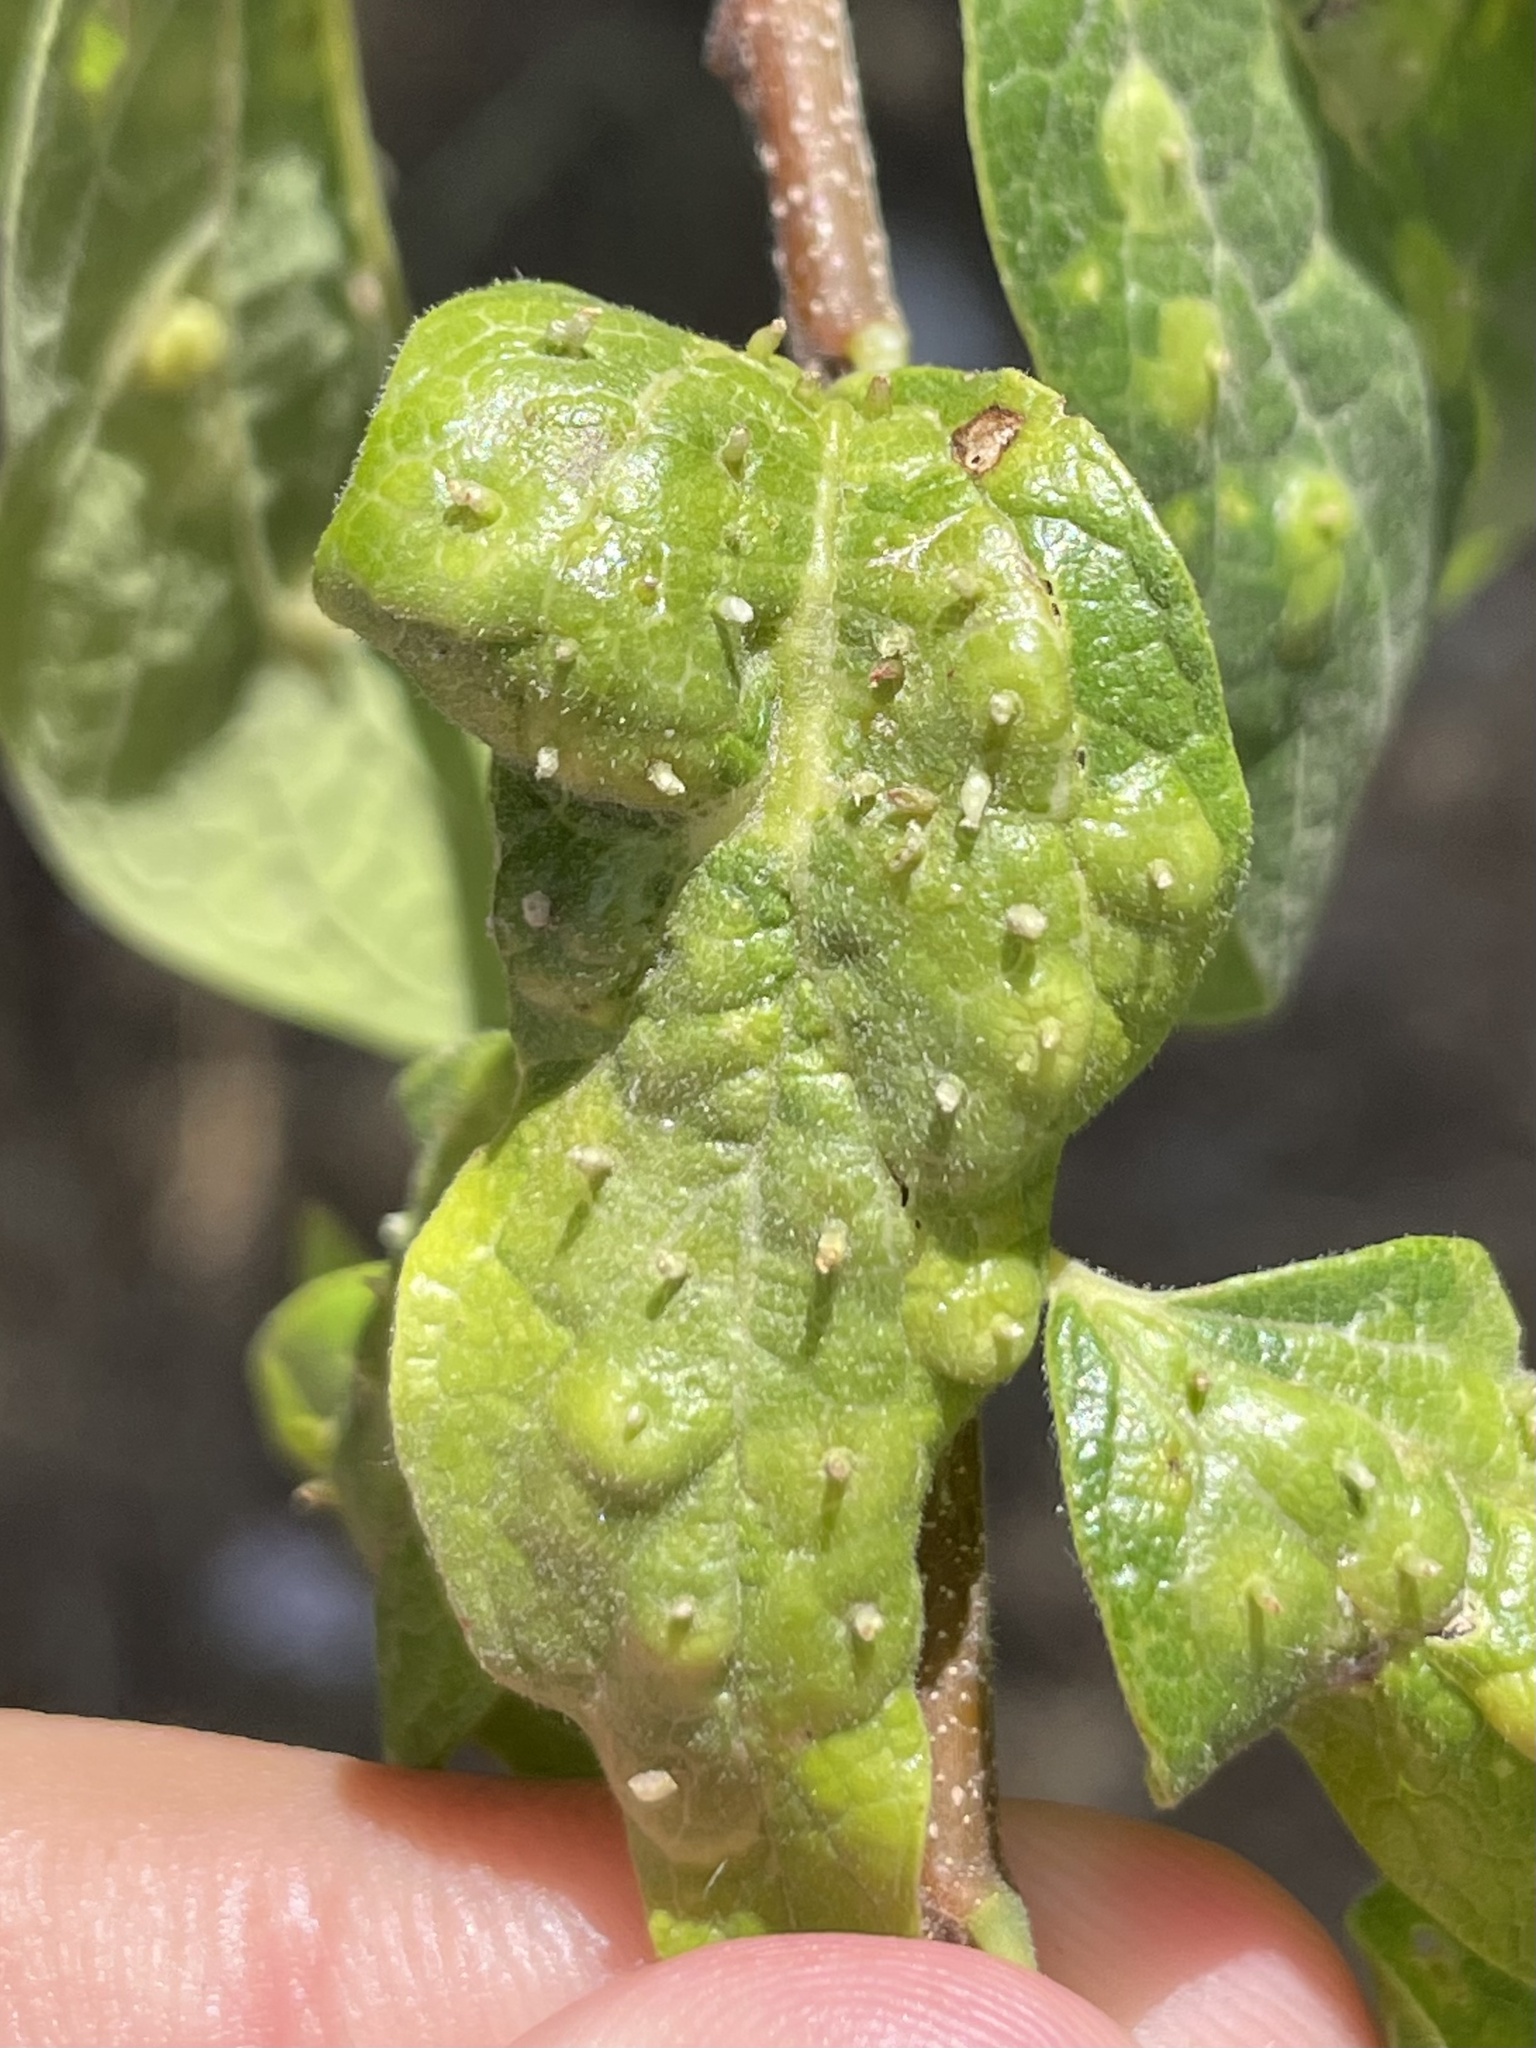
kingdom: Animalia
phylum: Arthropoda
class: Insecta
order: Hemiptera
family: Aphalaridae
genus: Pachypsylla
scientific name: Pachypsylla celtidisasterisca
